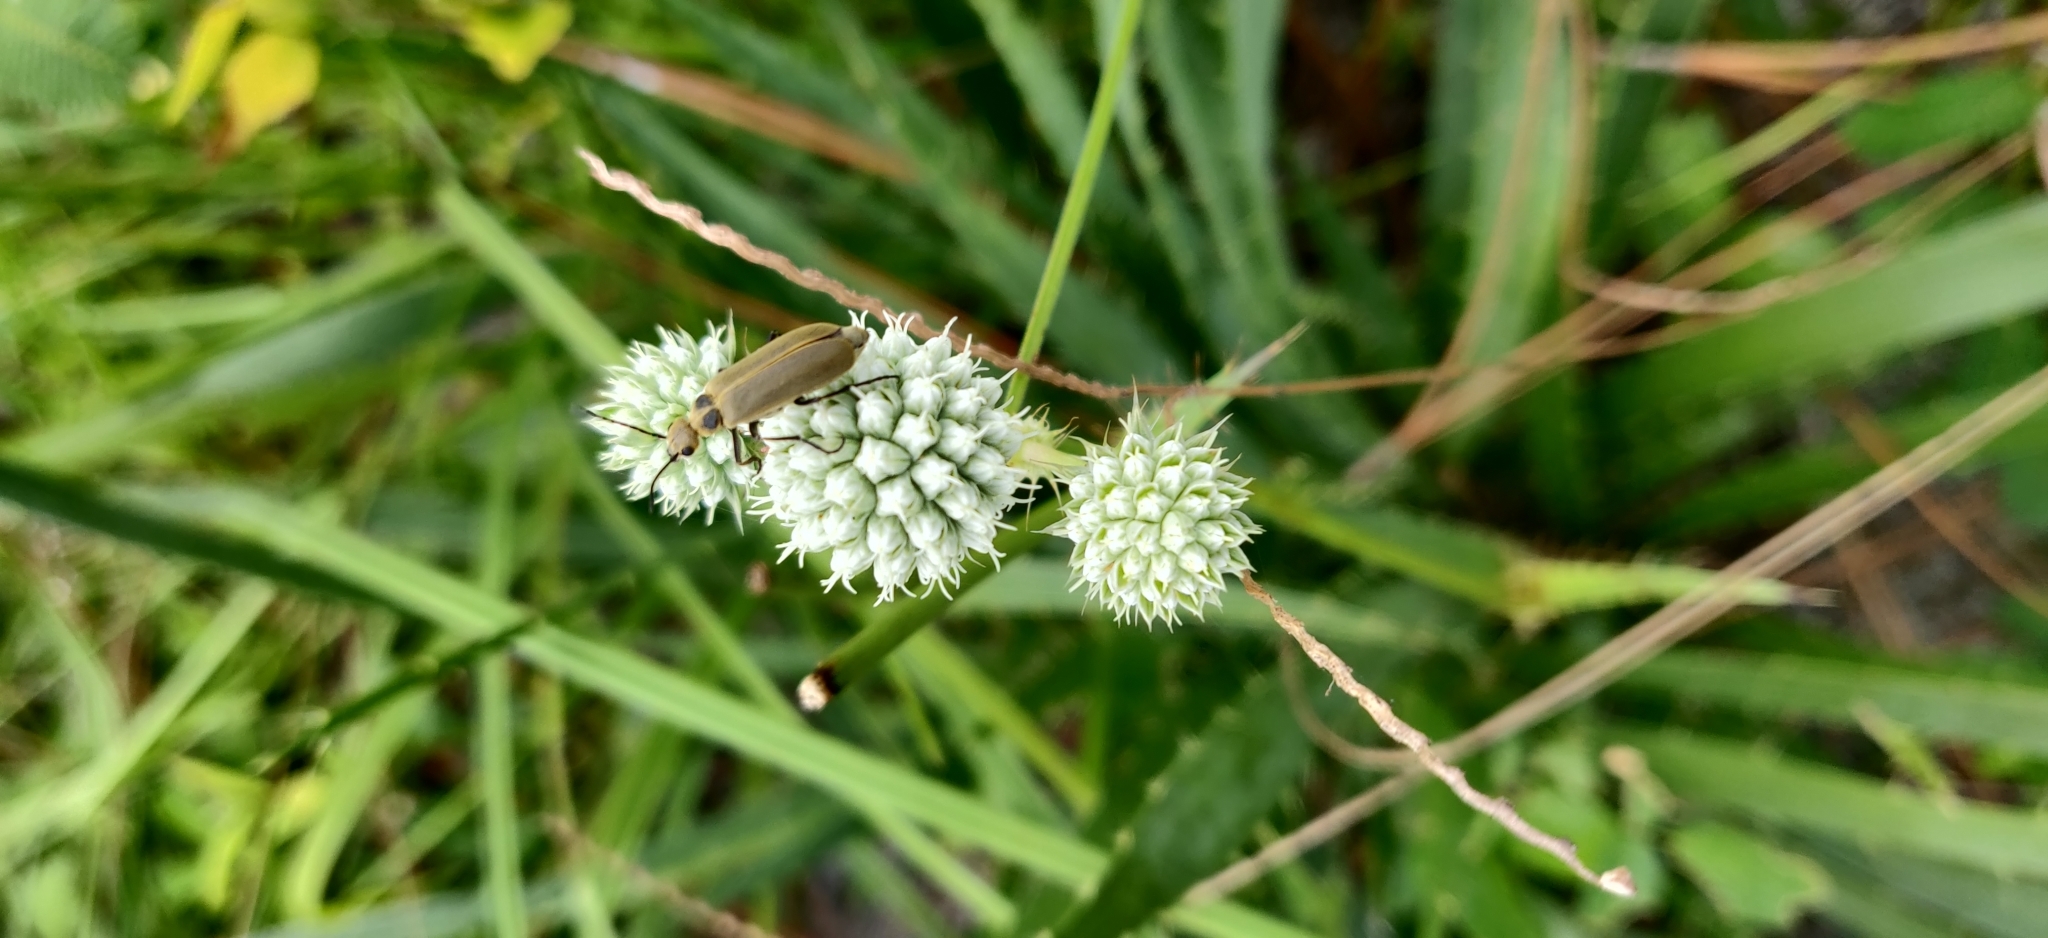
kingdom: Plantae
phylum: Tracheophyta
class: Magnoliopsida
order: Apiales
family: Apiaceae
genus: Eryngium
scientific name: Eryngium yuccifolium
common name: Button eryngo
